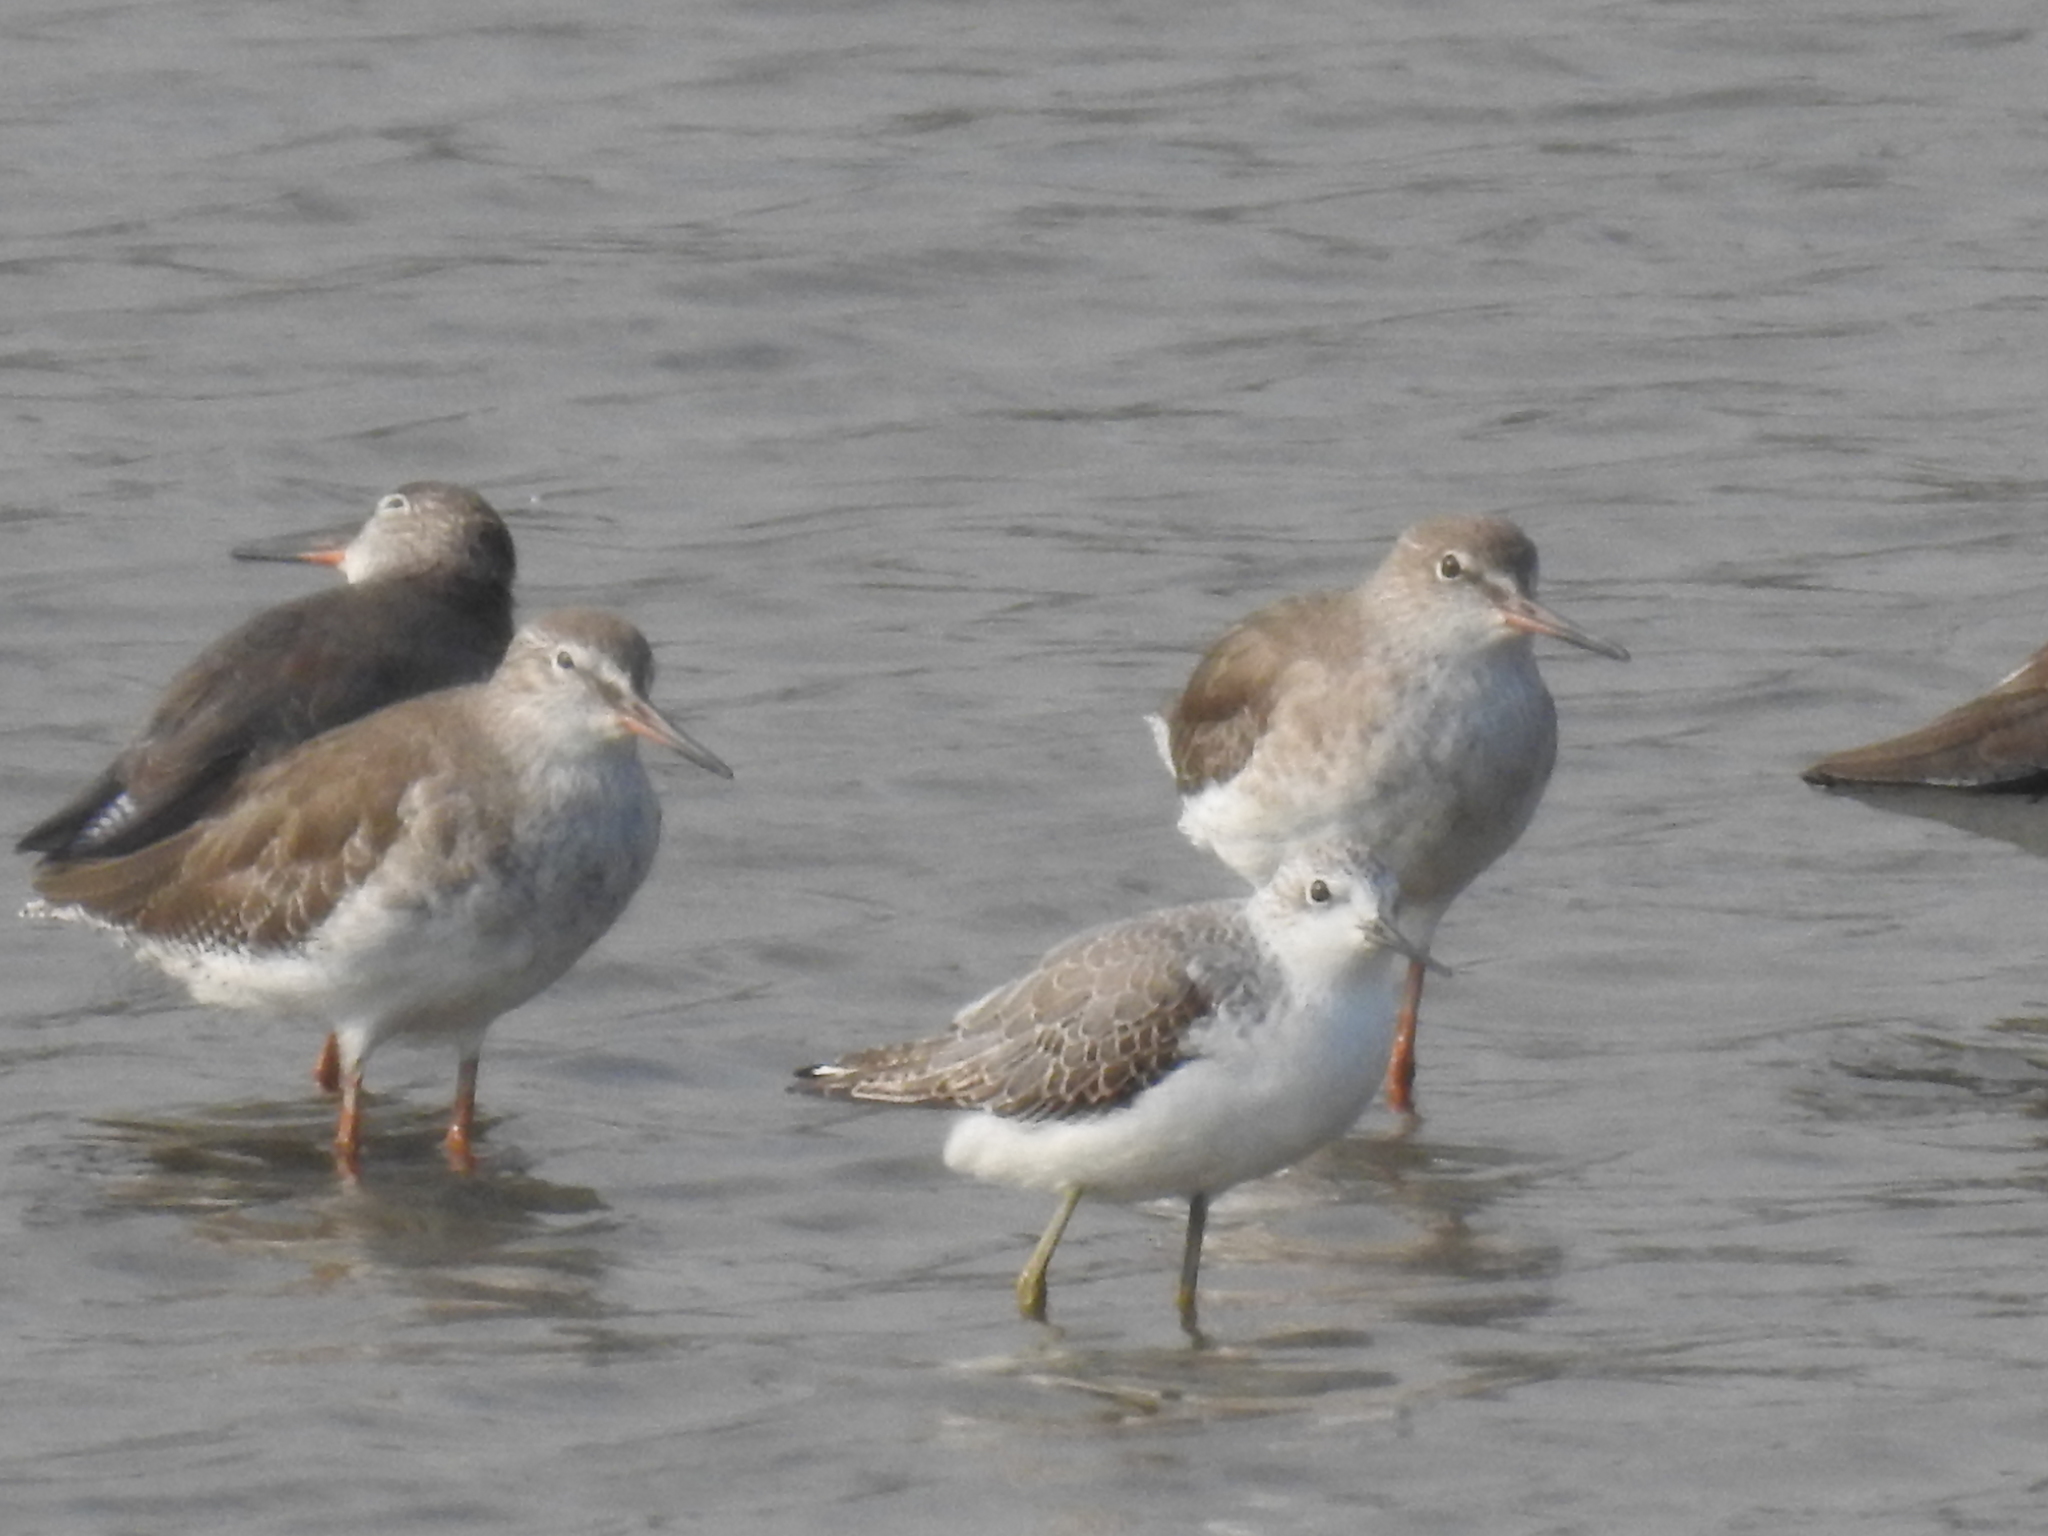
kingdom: Animalia
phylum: Chordata
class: Aves
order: Charadriiformes
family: Scolopacidae
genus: Tringa
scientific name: Tringa stagnatilis
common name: Marsh sandpiper
